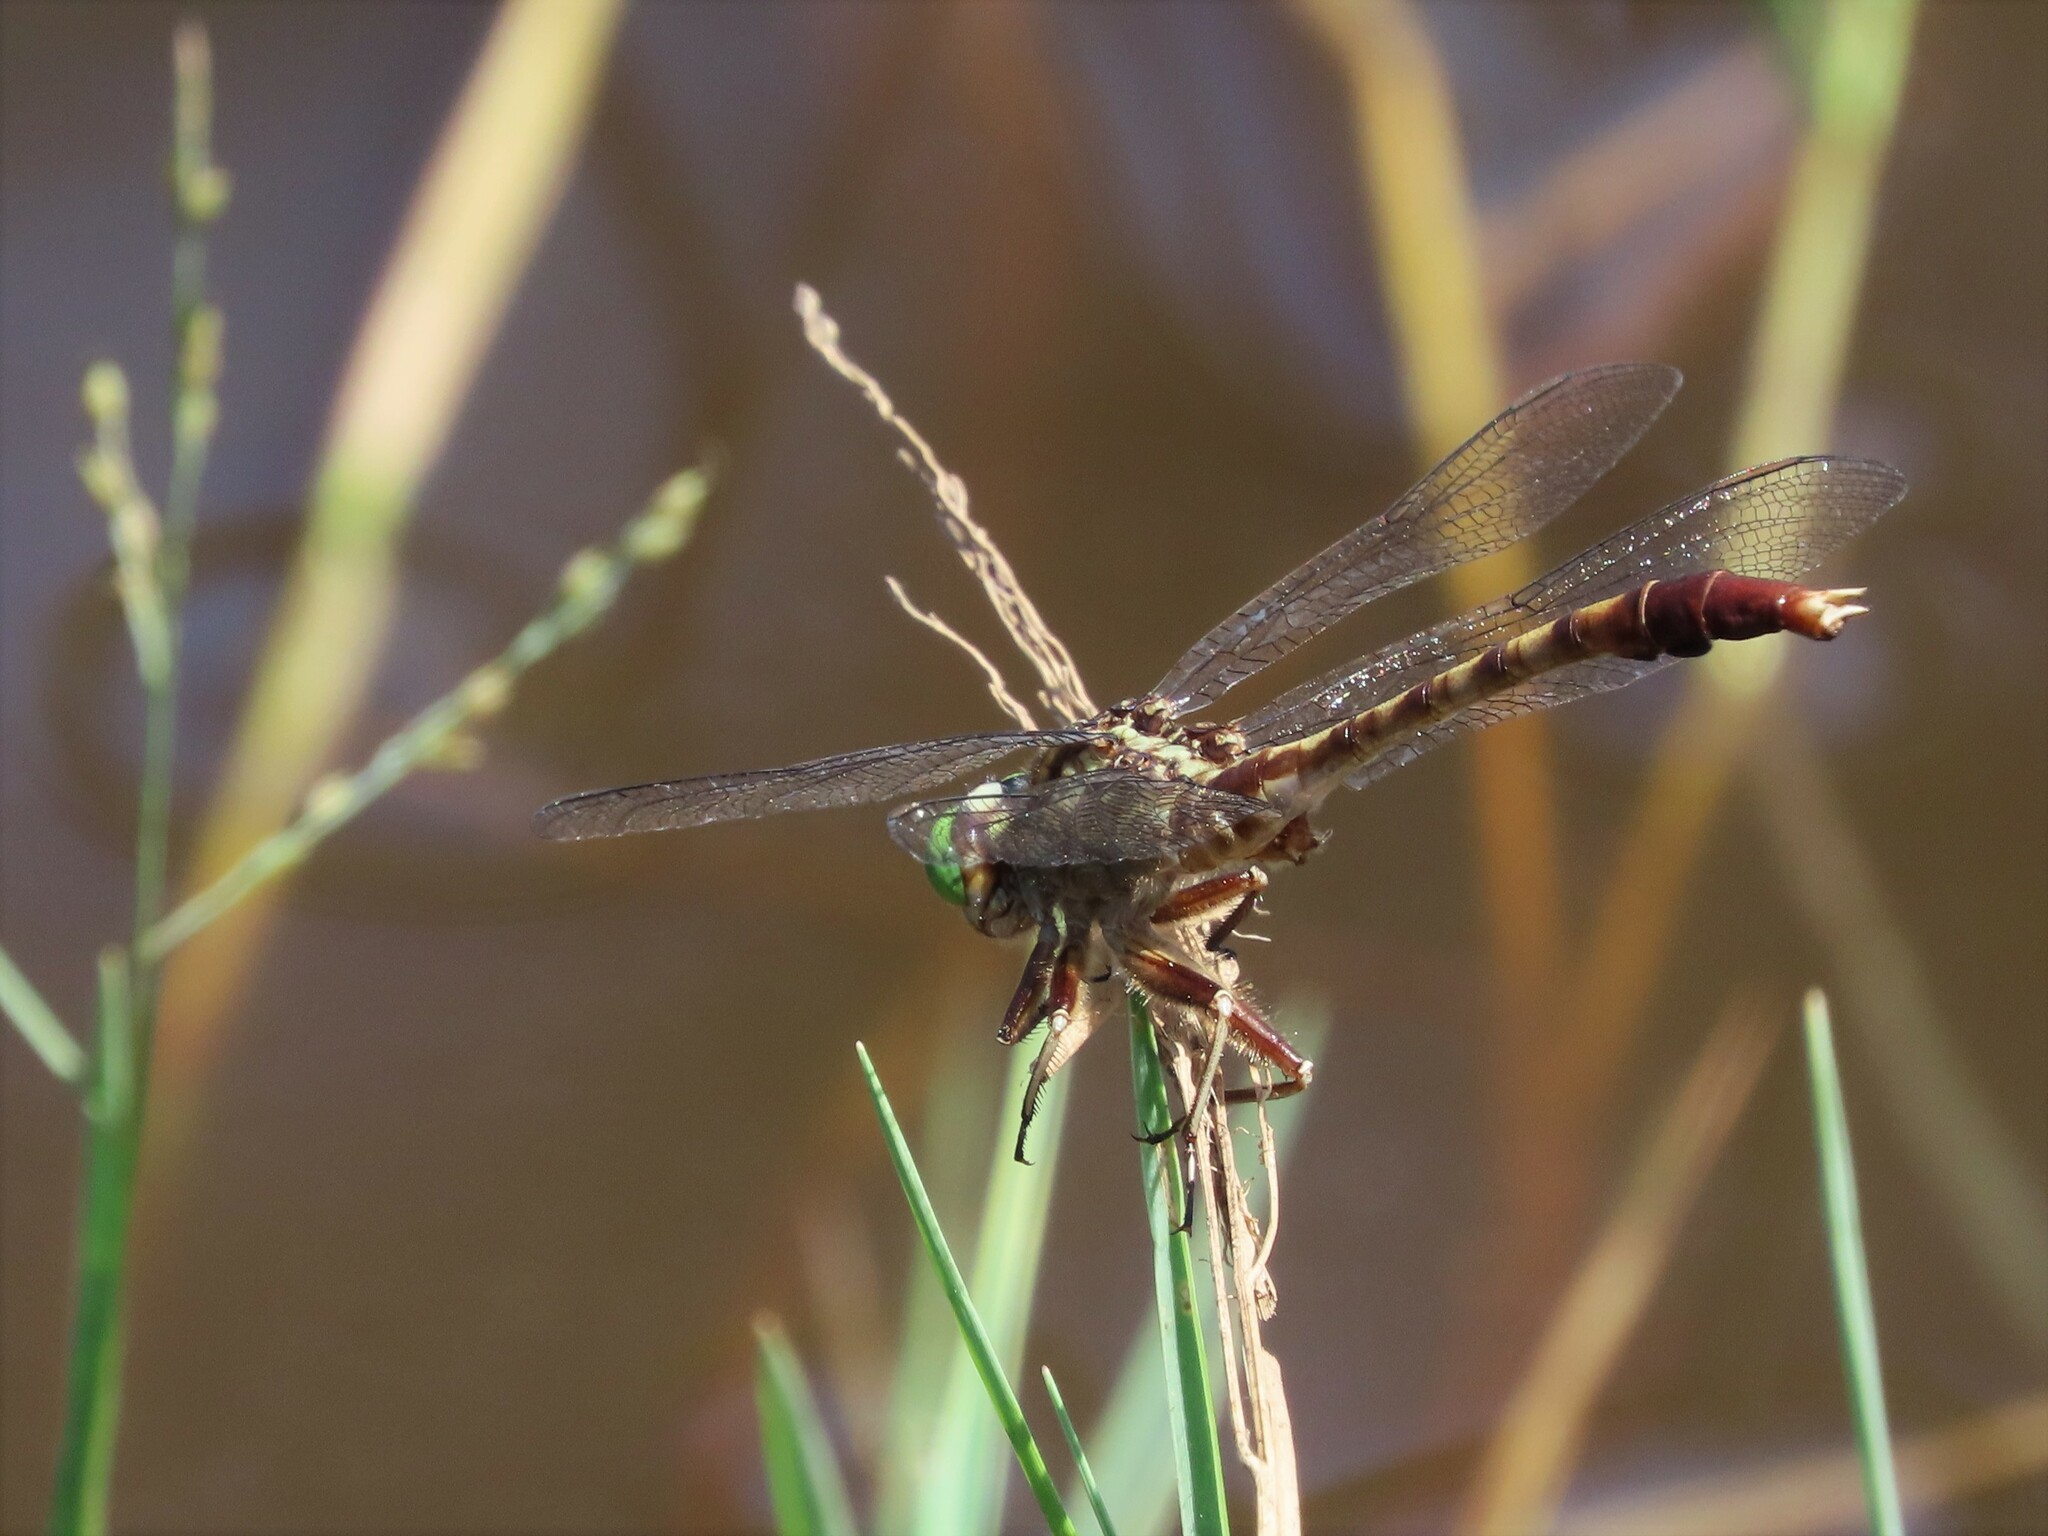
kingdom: Animalia
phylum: Arthropoda
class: Insecta
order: Odonata
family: Gomphidae
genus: Arigomphus
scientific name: Arigomphus pallidus
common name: Gray-green clubtail
